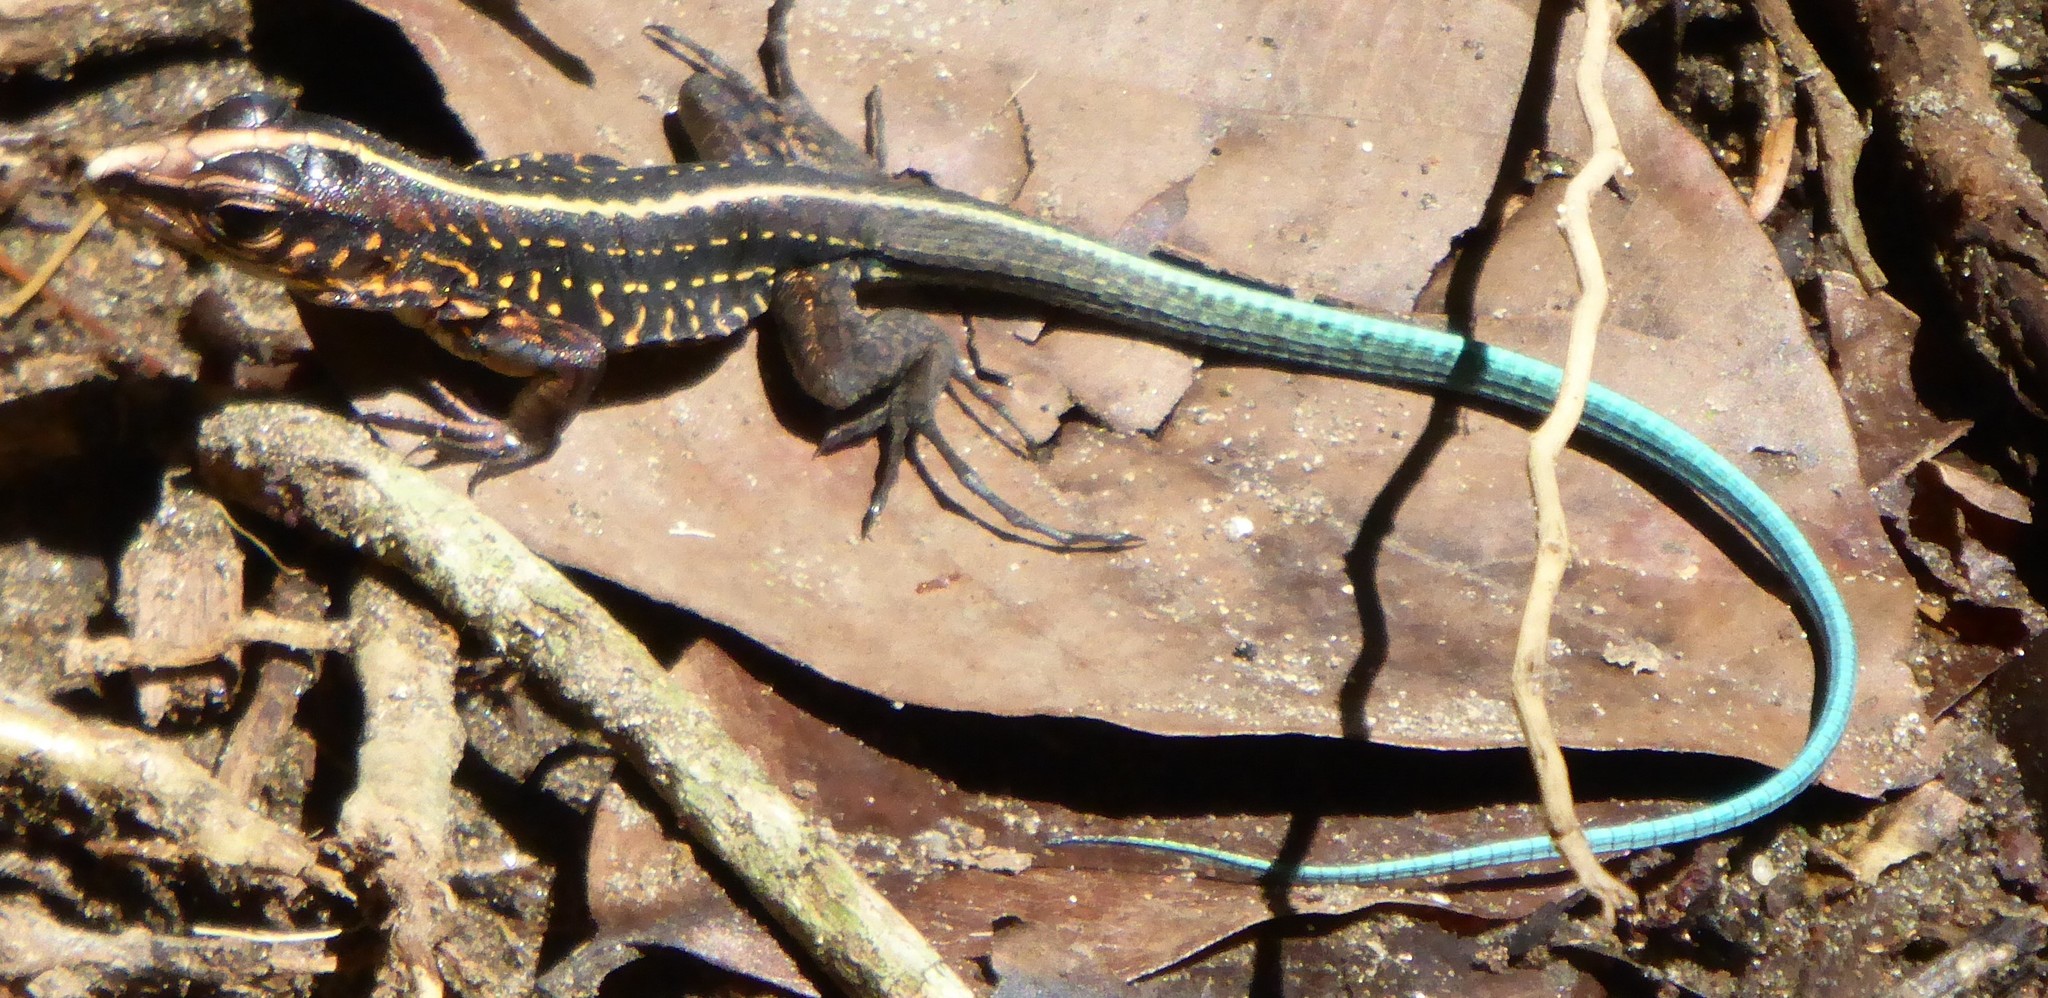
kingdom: Animalia
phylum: Chordata
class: Squamata
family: Teiidae
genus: Holcosus
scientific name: Holcosus festivus
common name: Middle american ameiva
